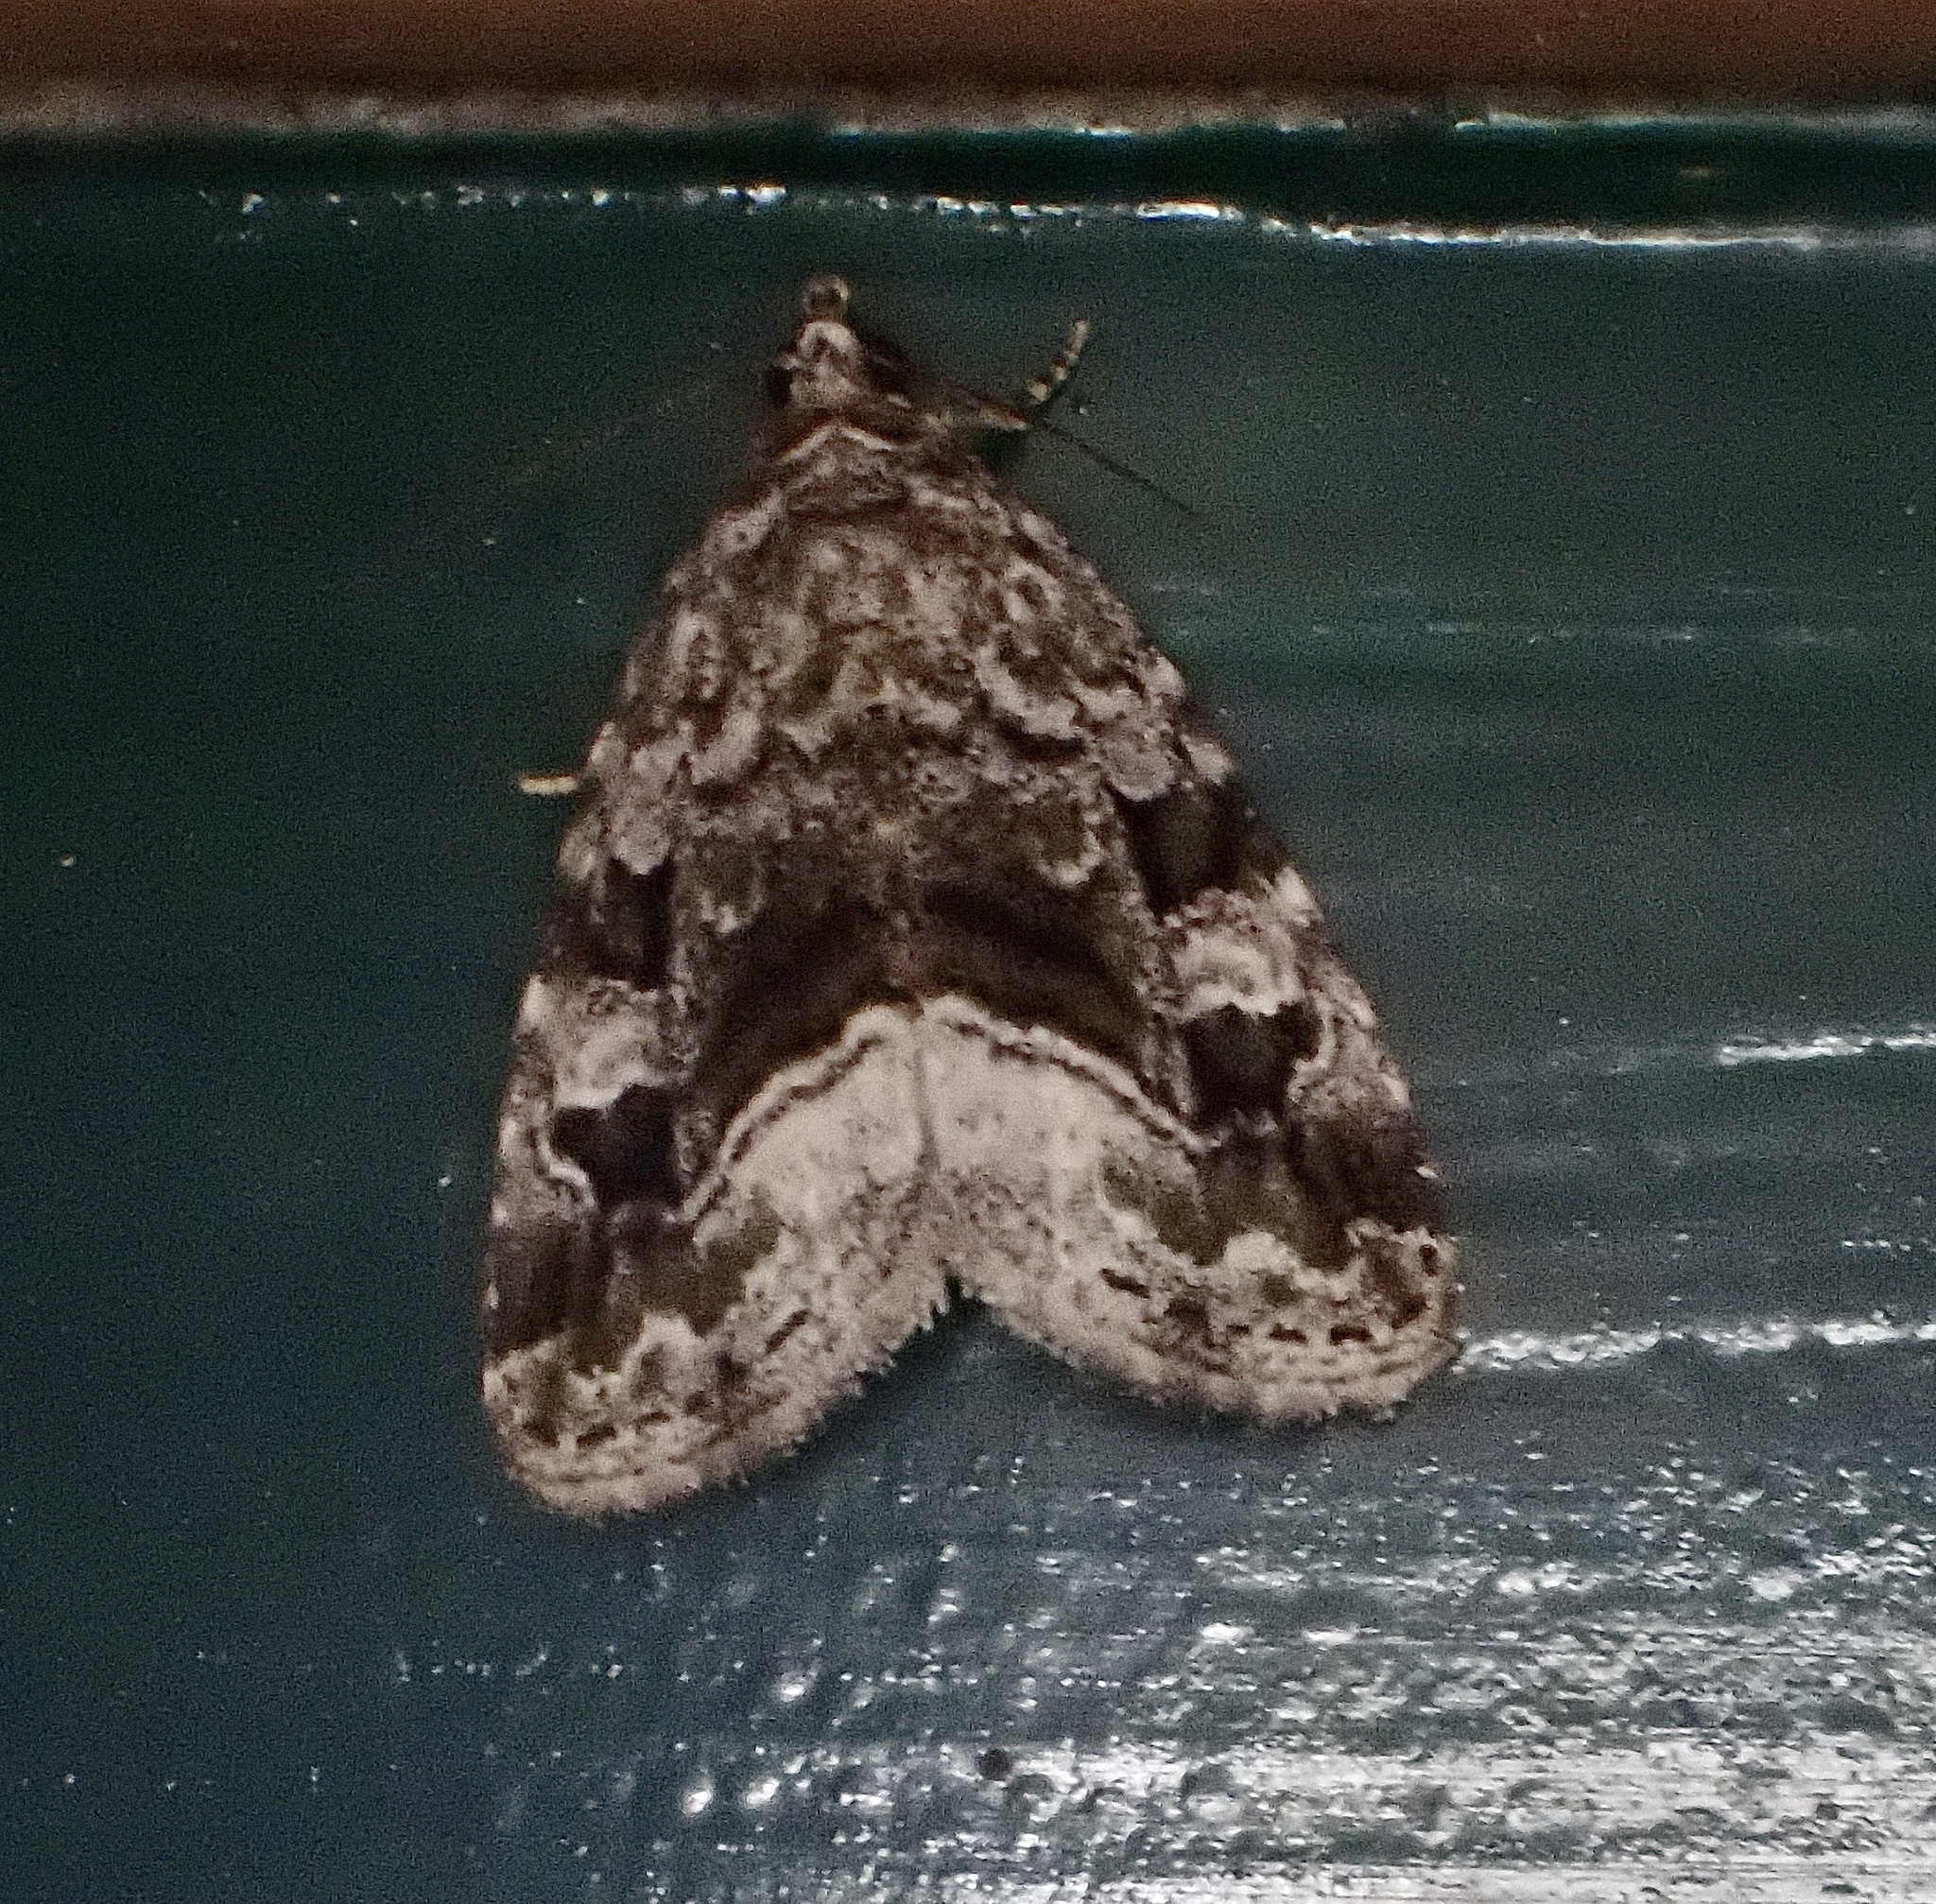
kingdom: Animalia
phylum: Arthropoda
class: Insecta
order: Lepidoptera
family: Noctuidae
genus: Protodeltote
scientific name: Protodeltote muscosula
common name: Large mossy glyph
